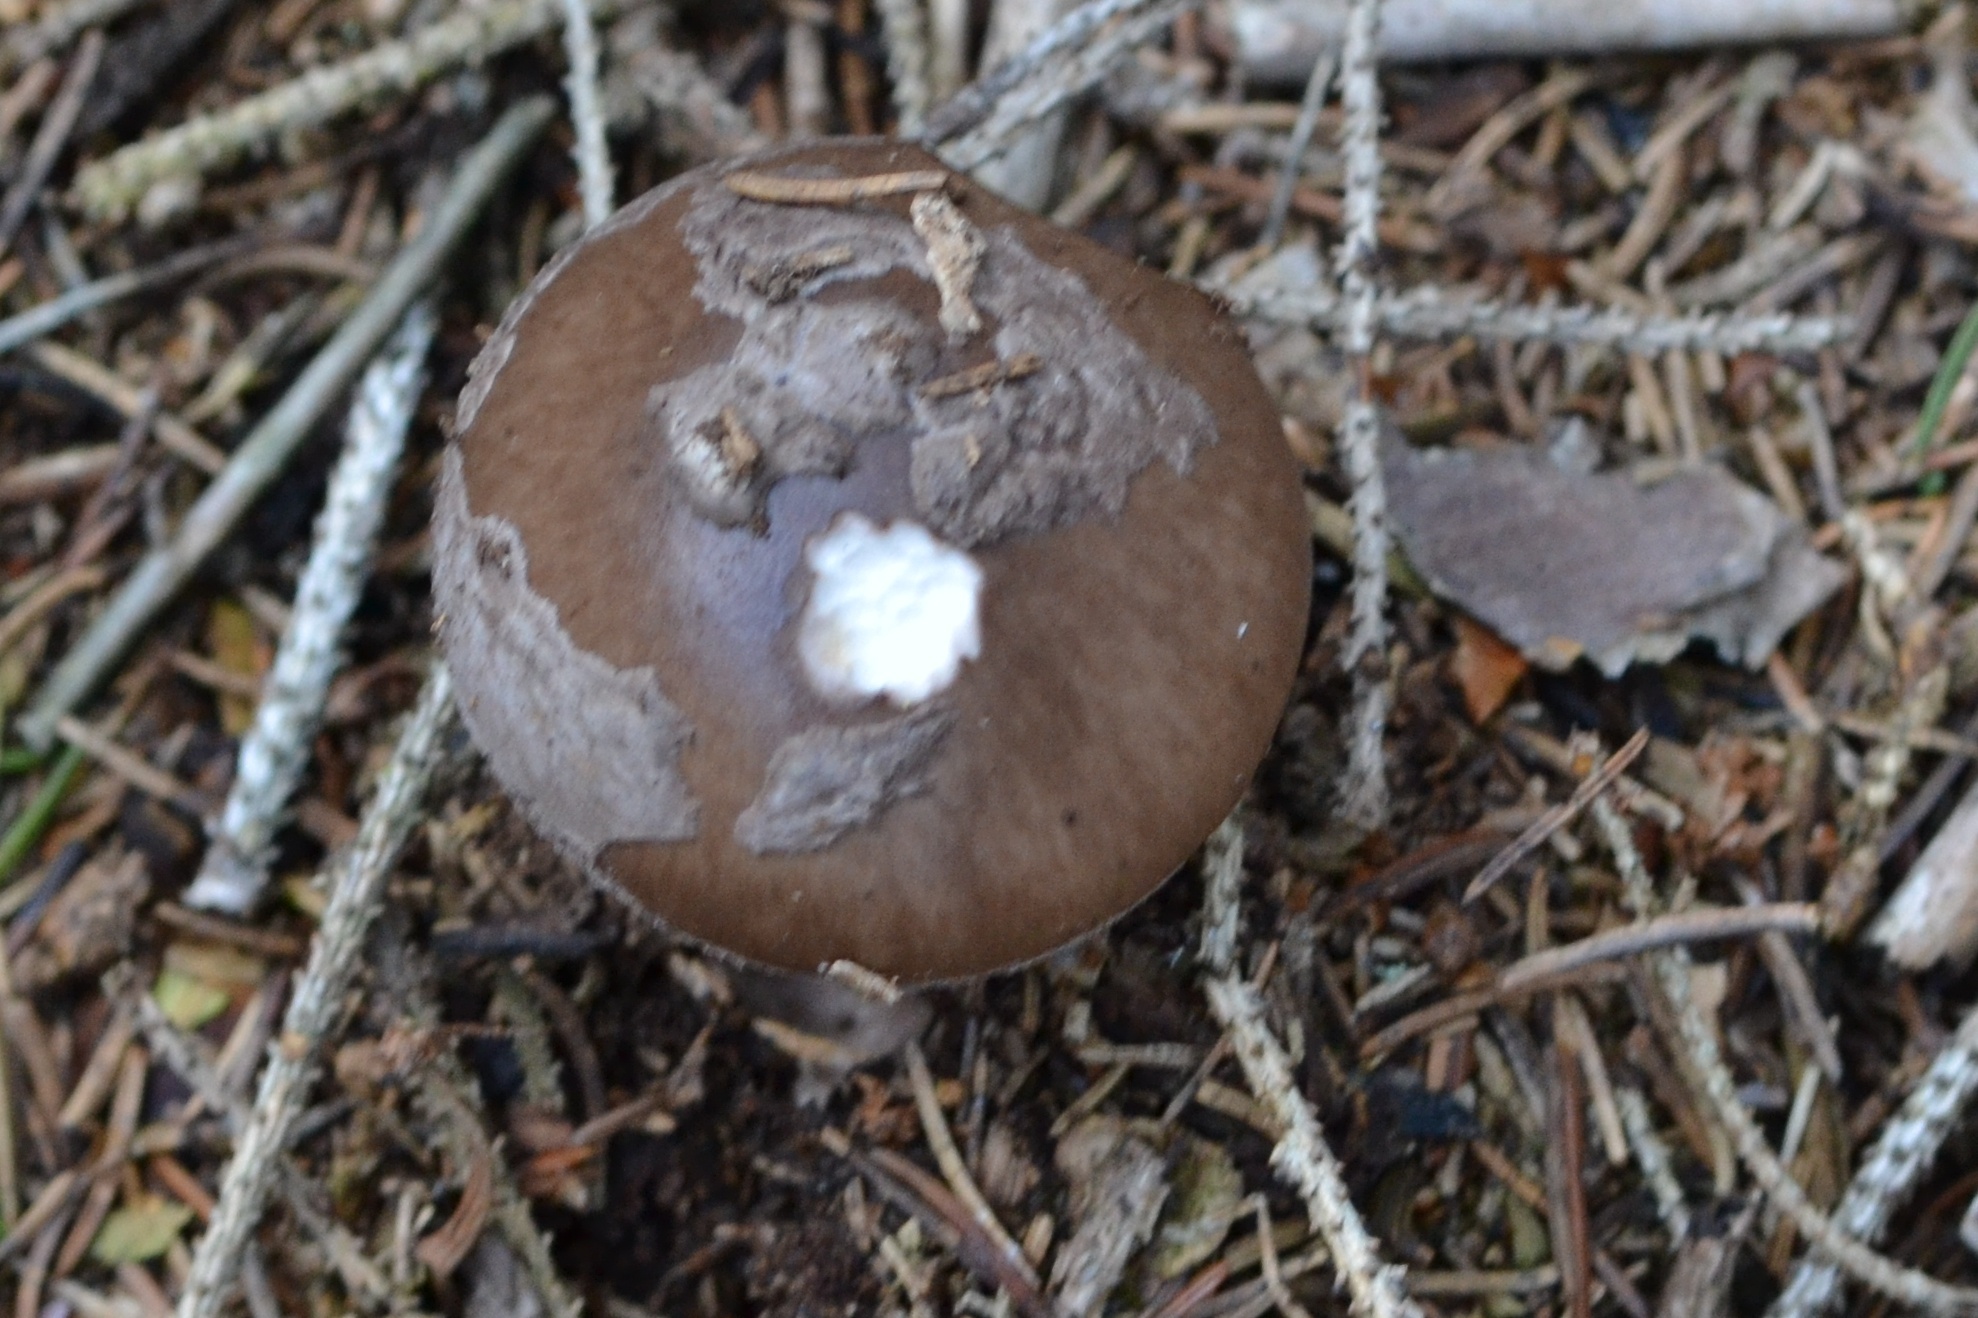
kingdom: Fungi
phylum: Basidiomycota
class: Agaricomycetes
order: Agaricales
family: Amanitaceae
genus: Amanita
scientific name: Amanita porphyria
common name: Grey veiled amanita
